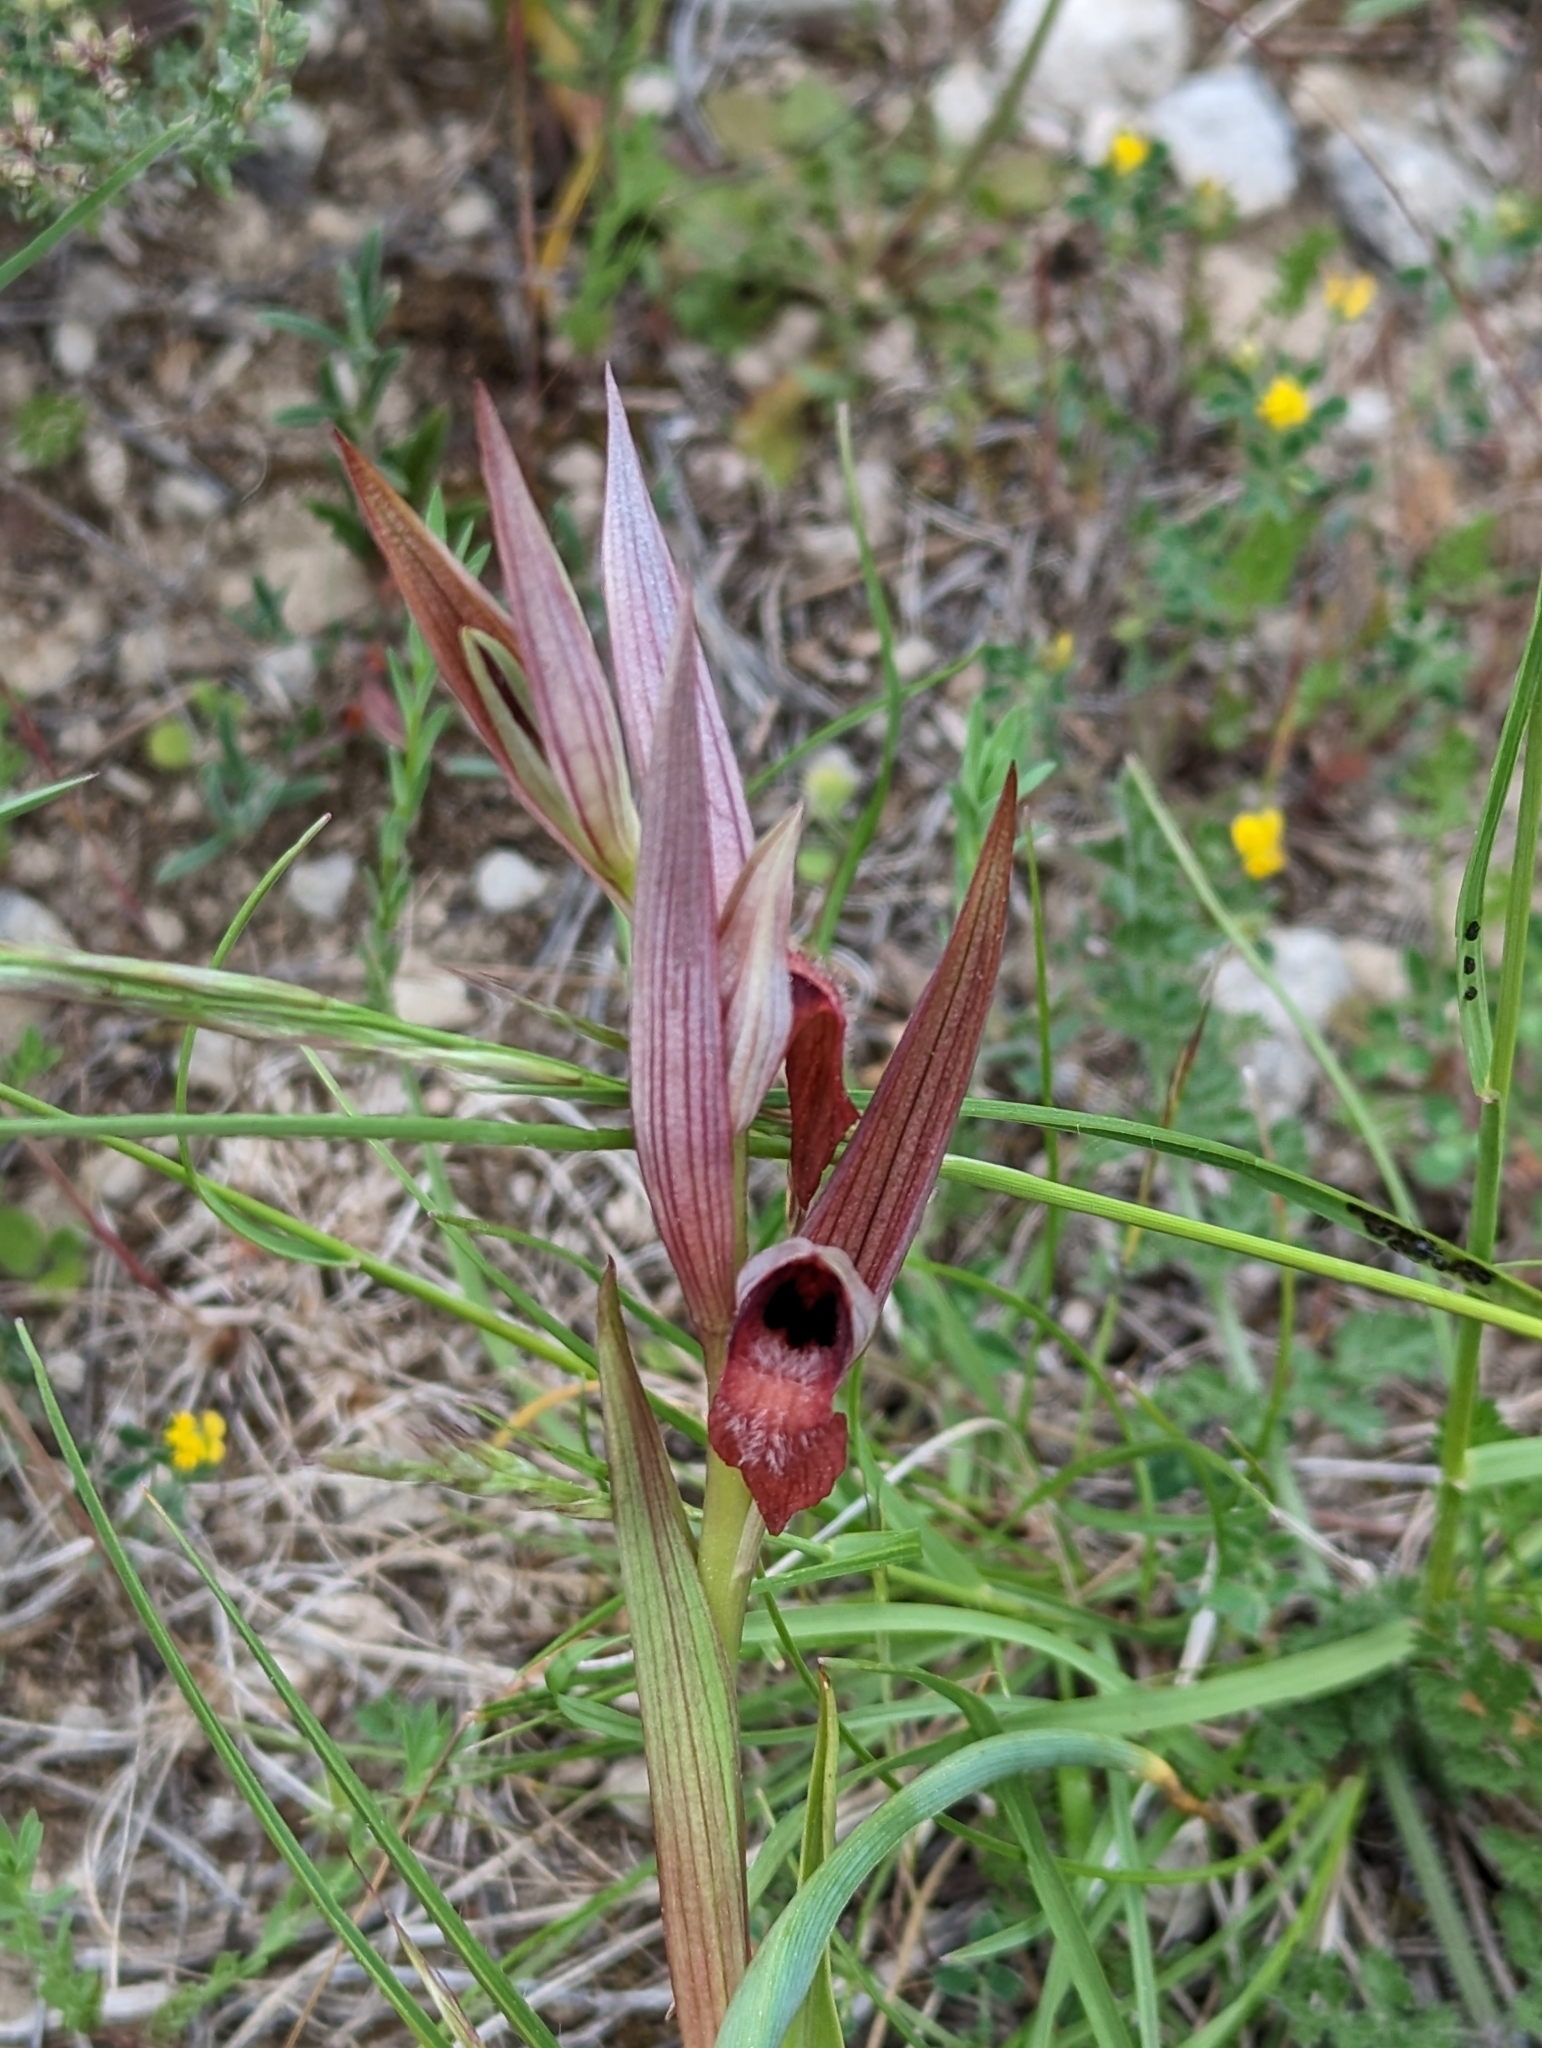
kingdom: Plantae
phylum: Tracheophyta
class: Liliopsida
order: Asparagales
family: Orchidaceae
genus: Serapias
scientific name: Serapias vomeracea
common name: Long-lipped tongue-orchid
